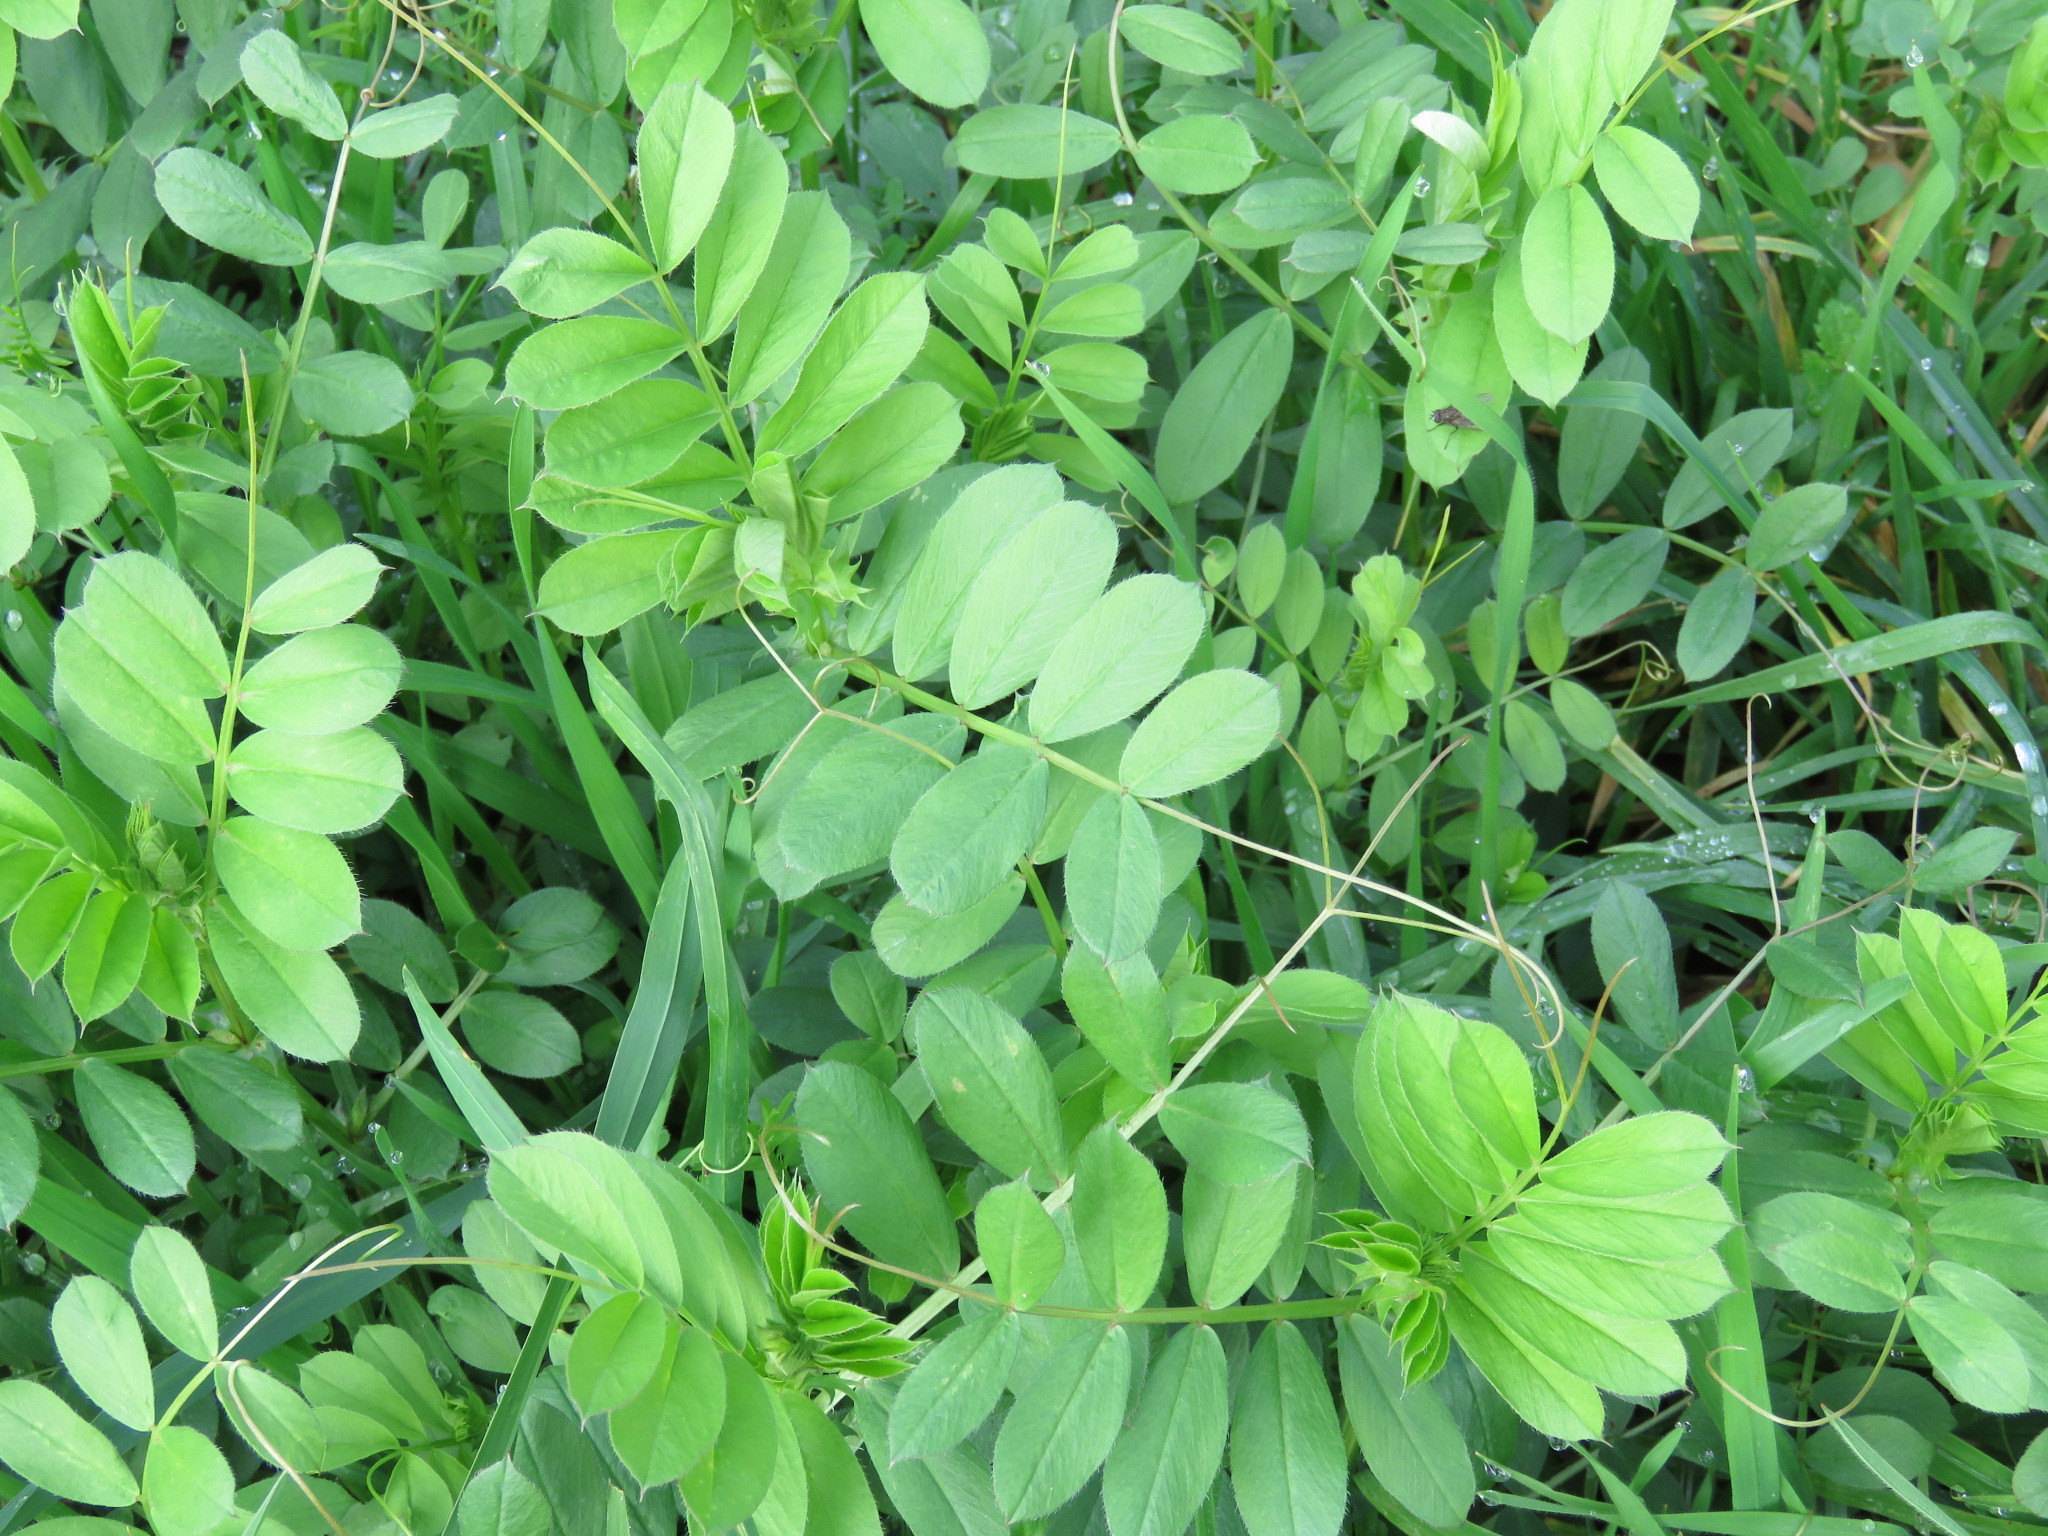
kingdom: Plantae
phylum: Tracheophyta
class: Magnoliopsida
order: Fabales
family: Fabaceae
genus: Vicia
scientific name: Vicia sativa
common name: Garden vetch
